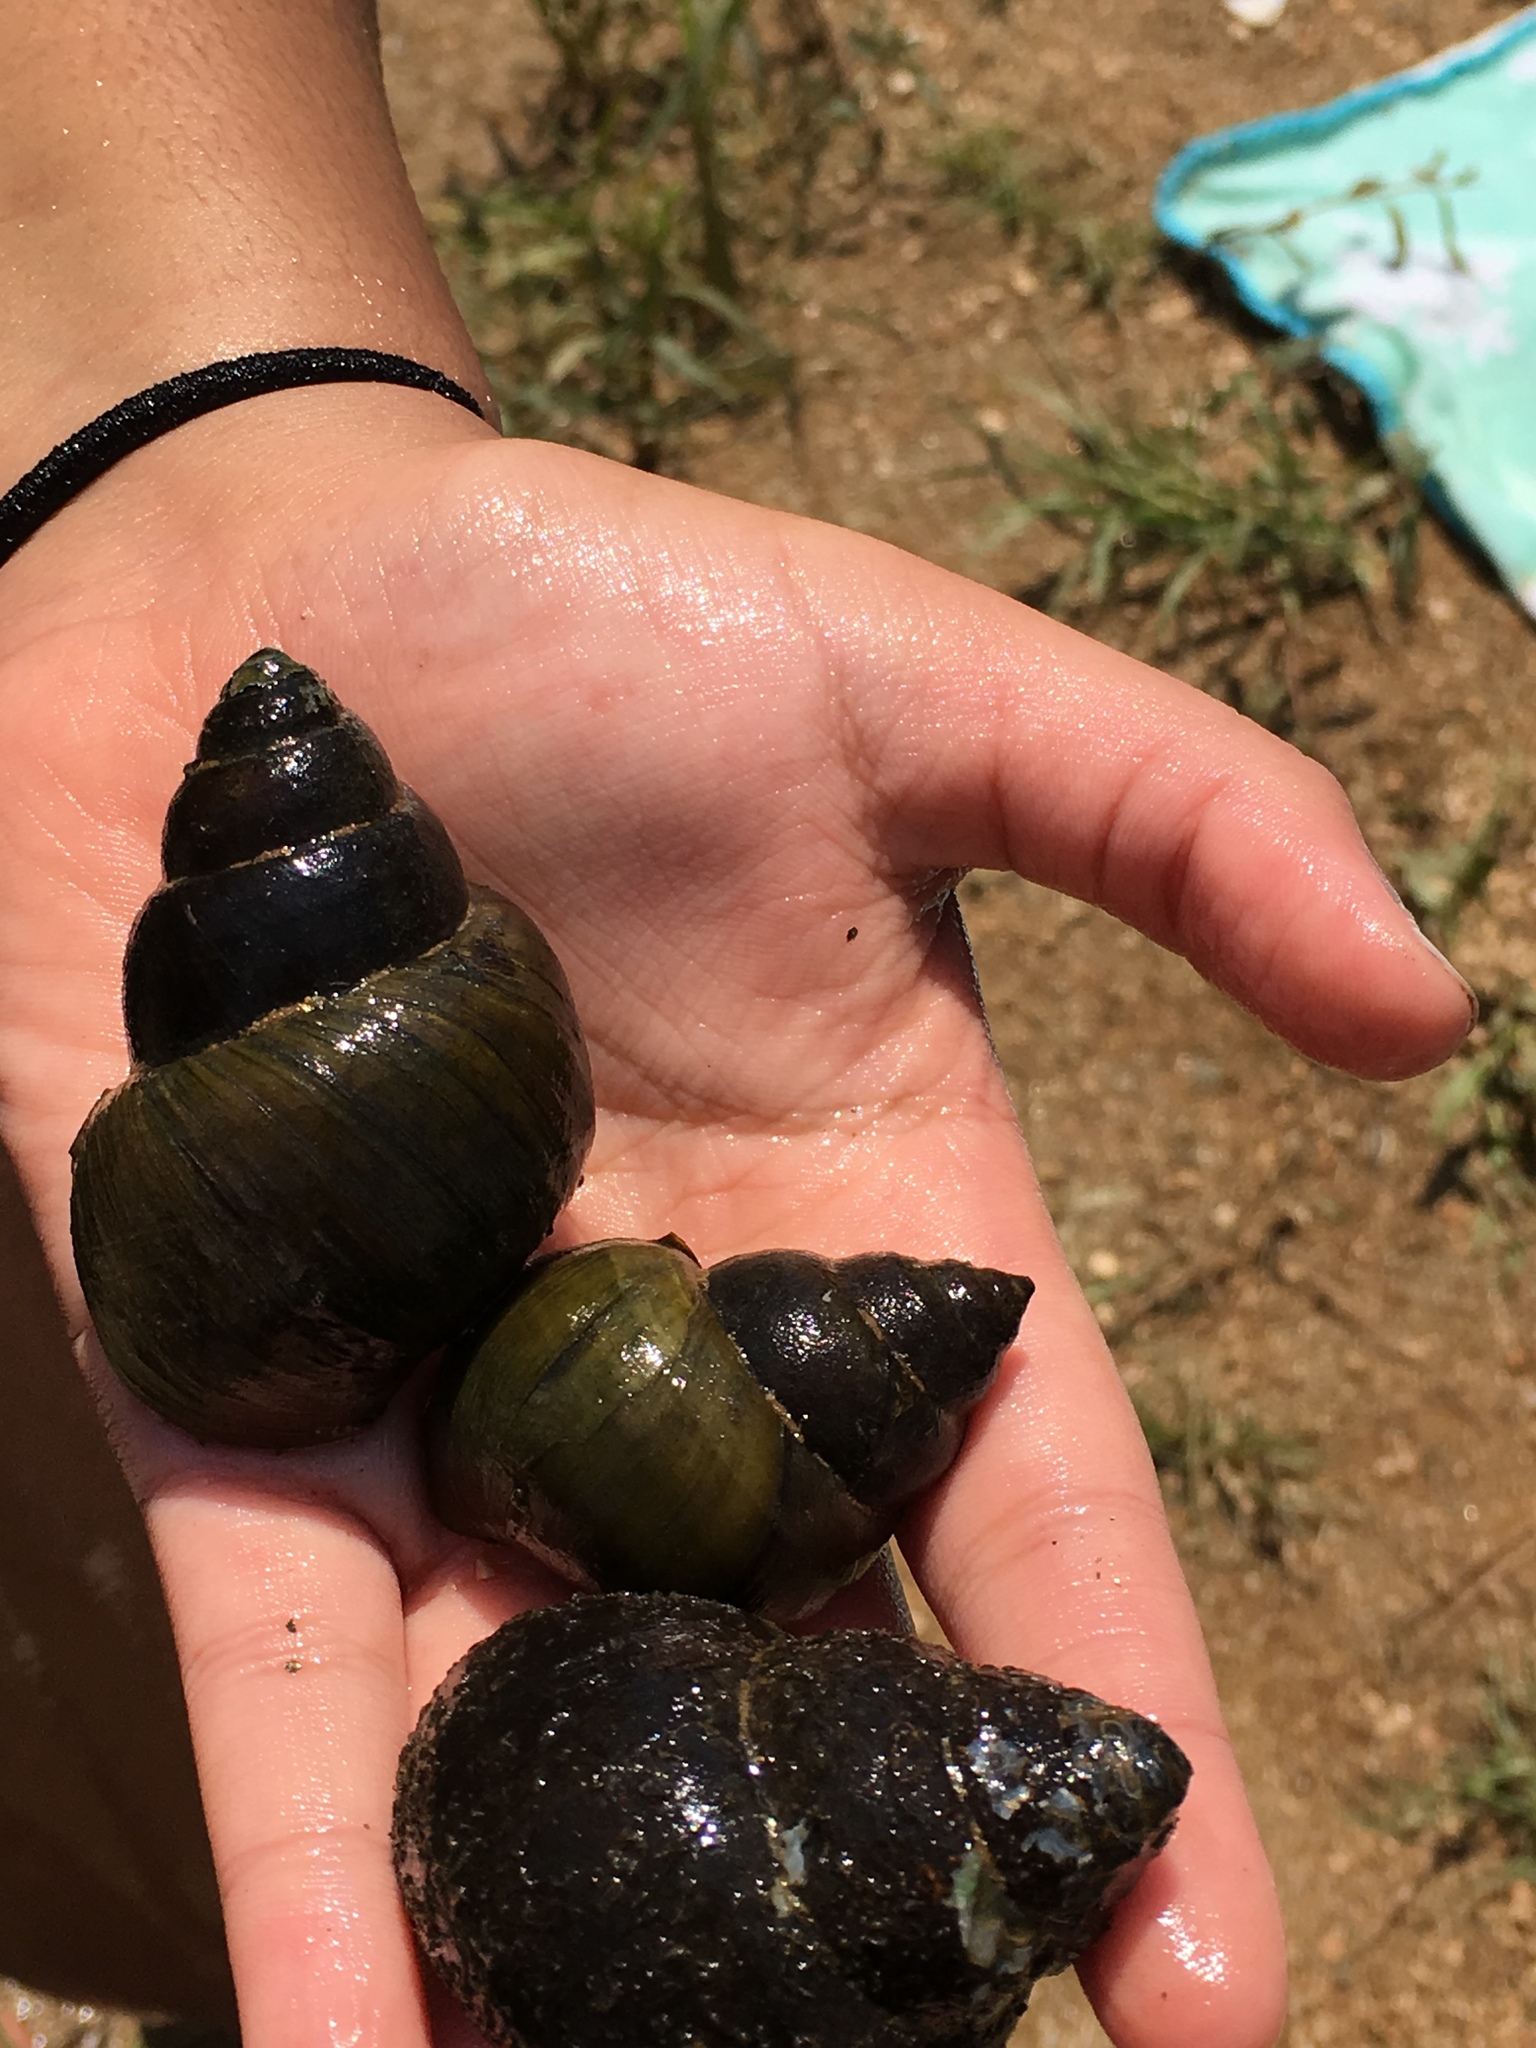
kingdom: Animalia
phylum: Mollusca
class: Gastropoda
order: Architaenioglossa
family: Viviparidae
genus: Cipangopaludina
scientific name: Cipangopaludina chinensis
